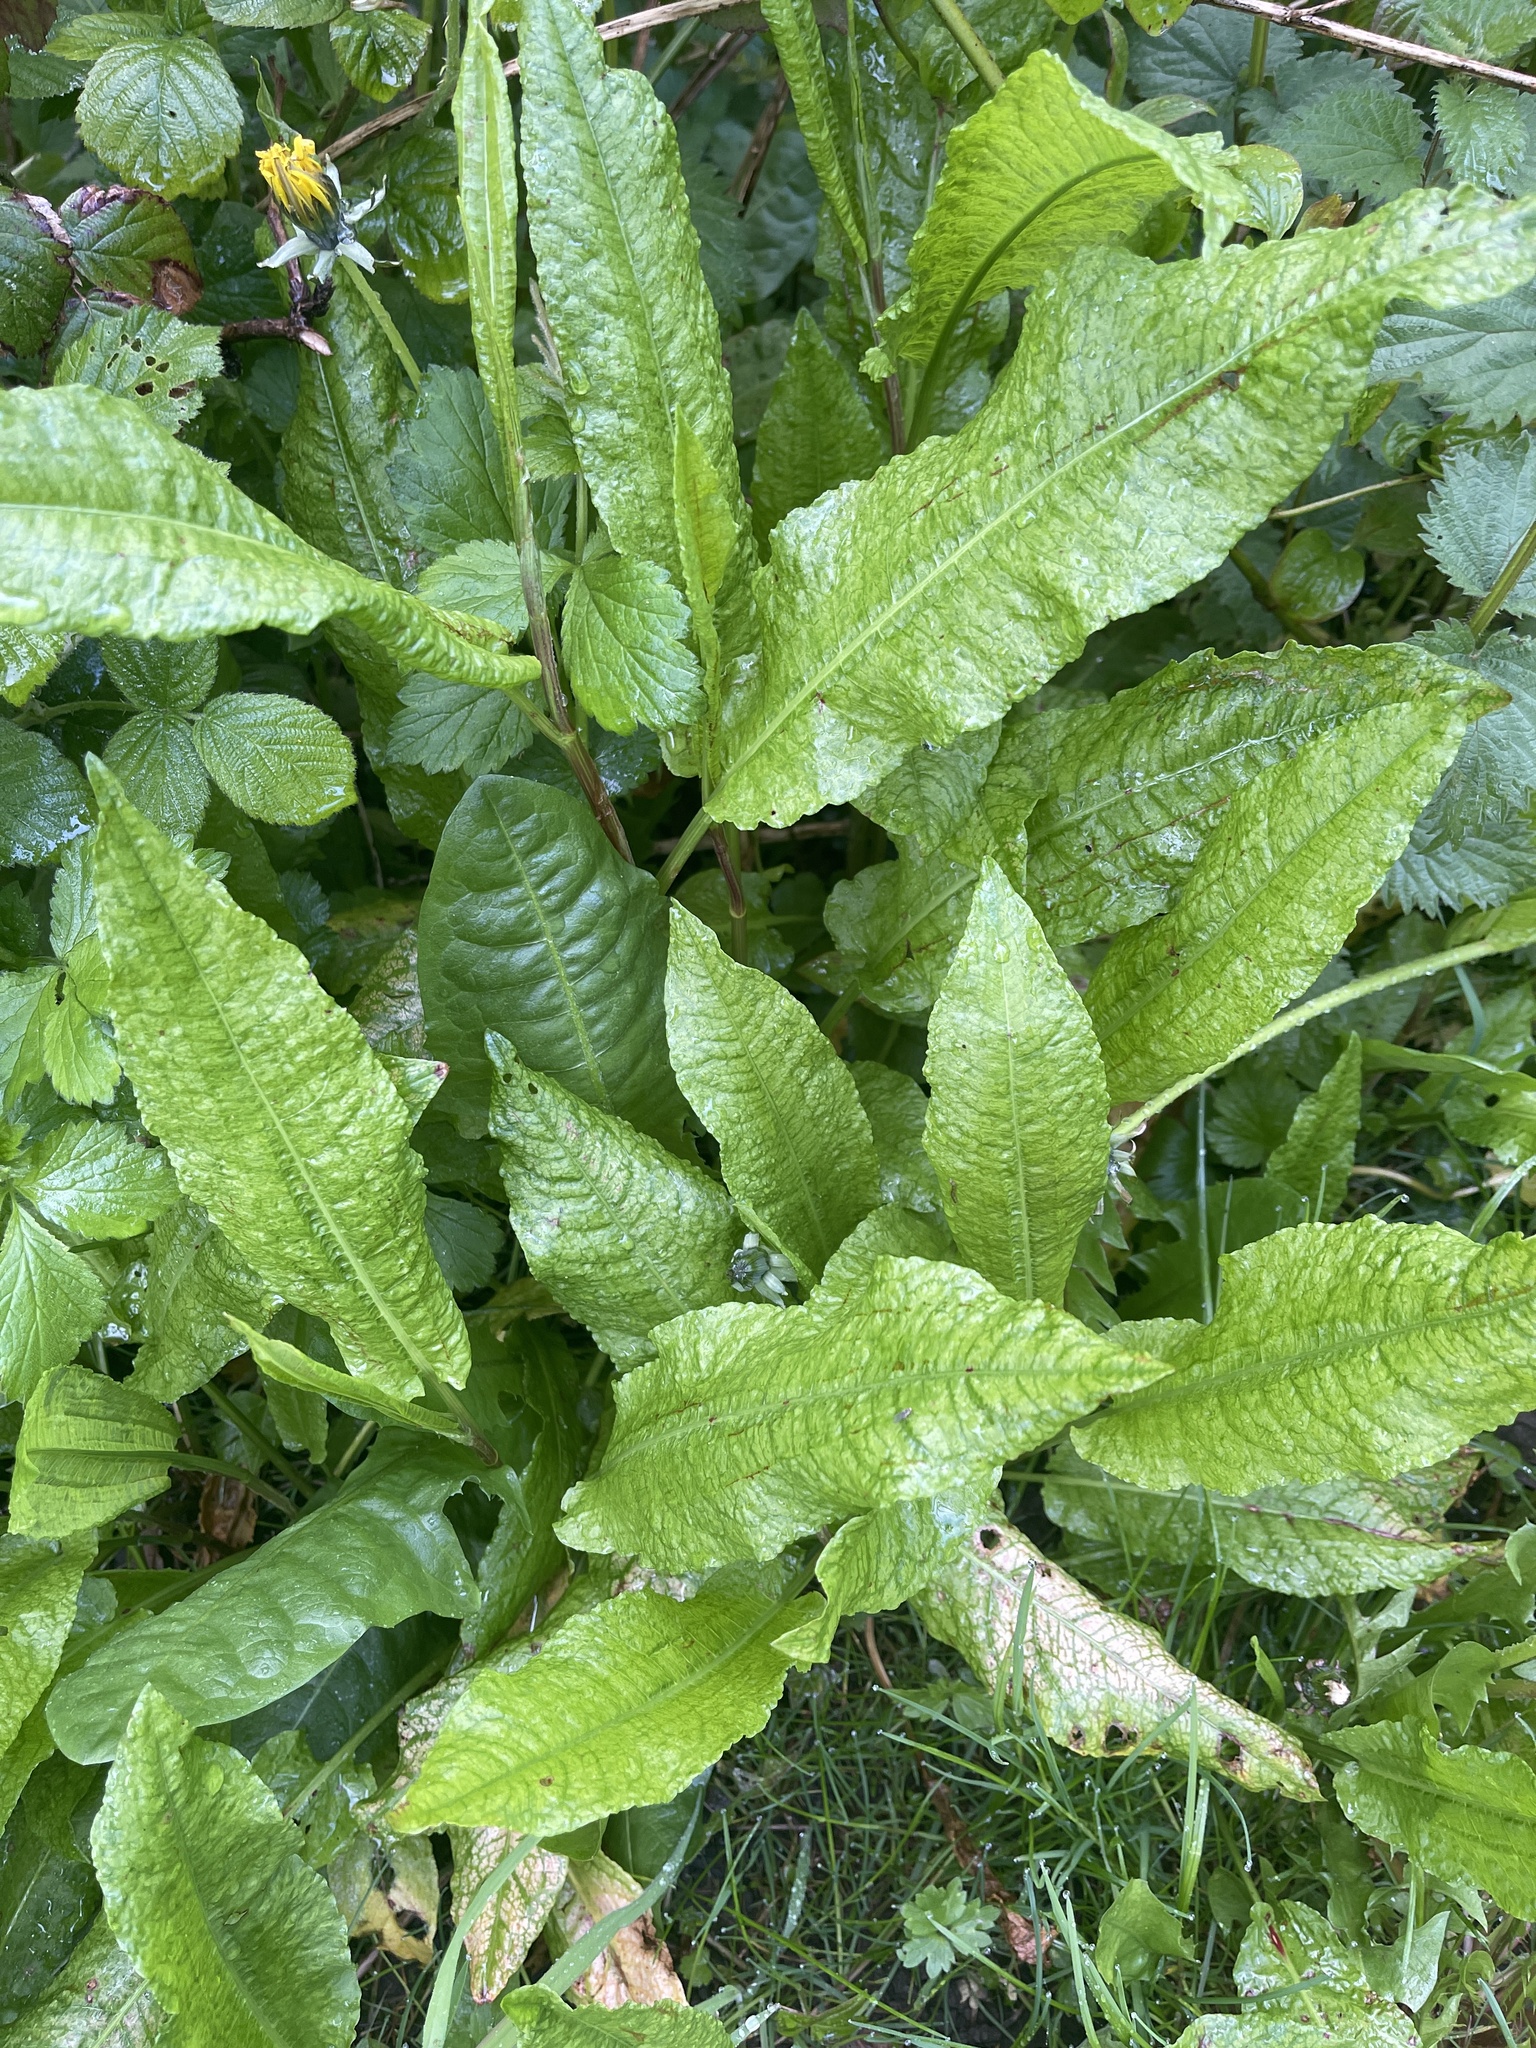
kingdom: Plantae
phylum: Tracheophyta
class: Magnoliopsida
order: Caryophyllales
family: Polygonaceae
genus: Rumex
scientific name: Rumex sanguineus
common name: Wood dock
